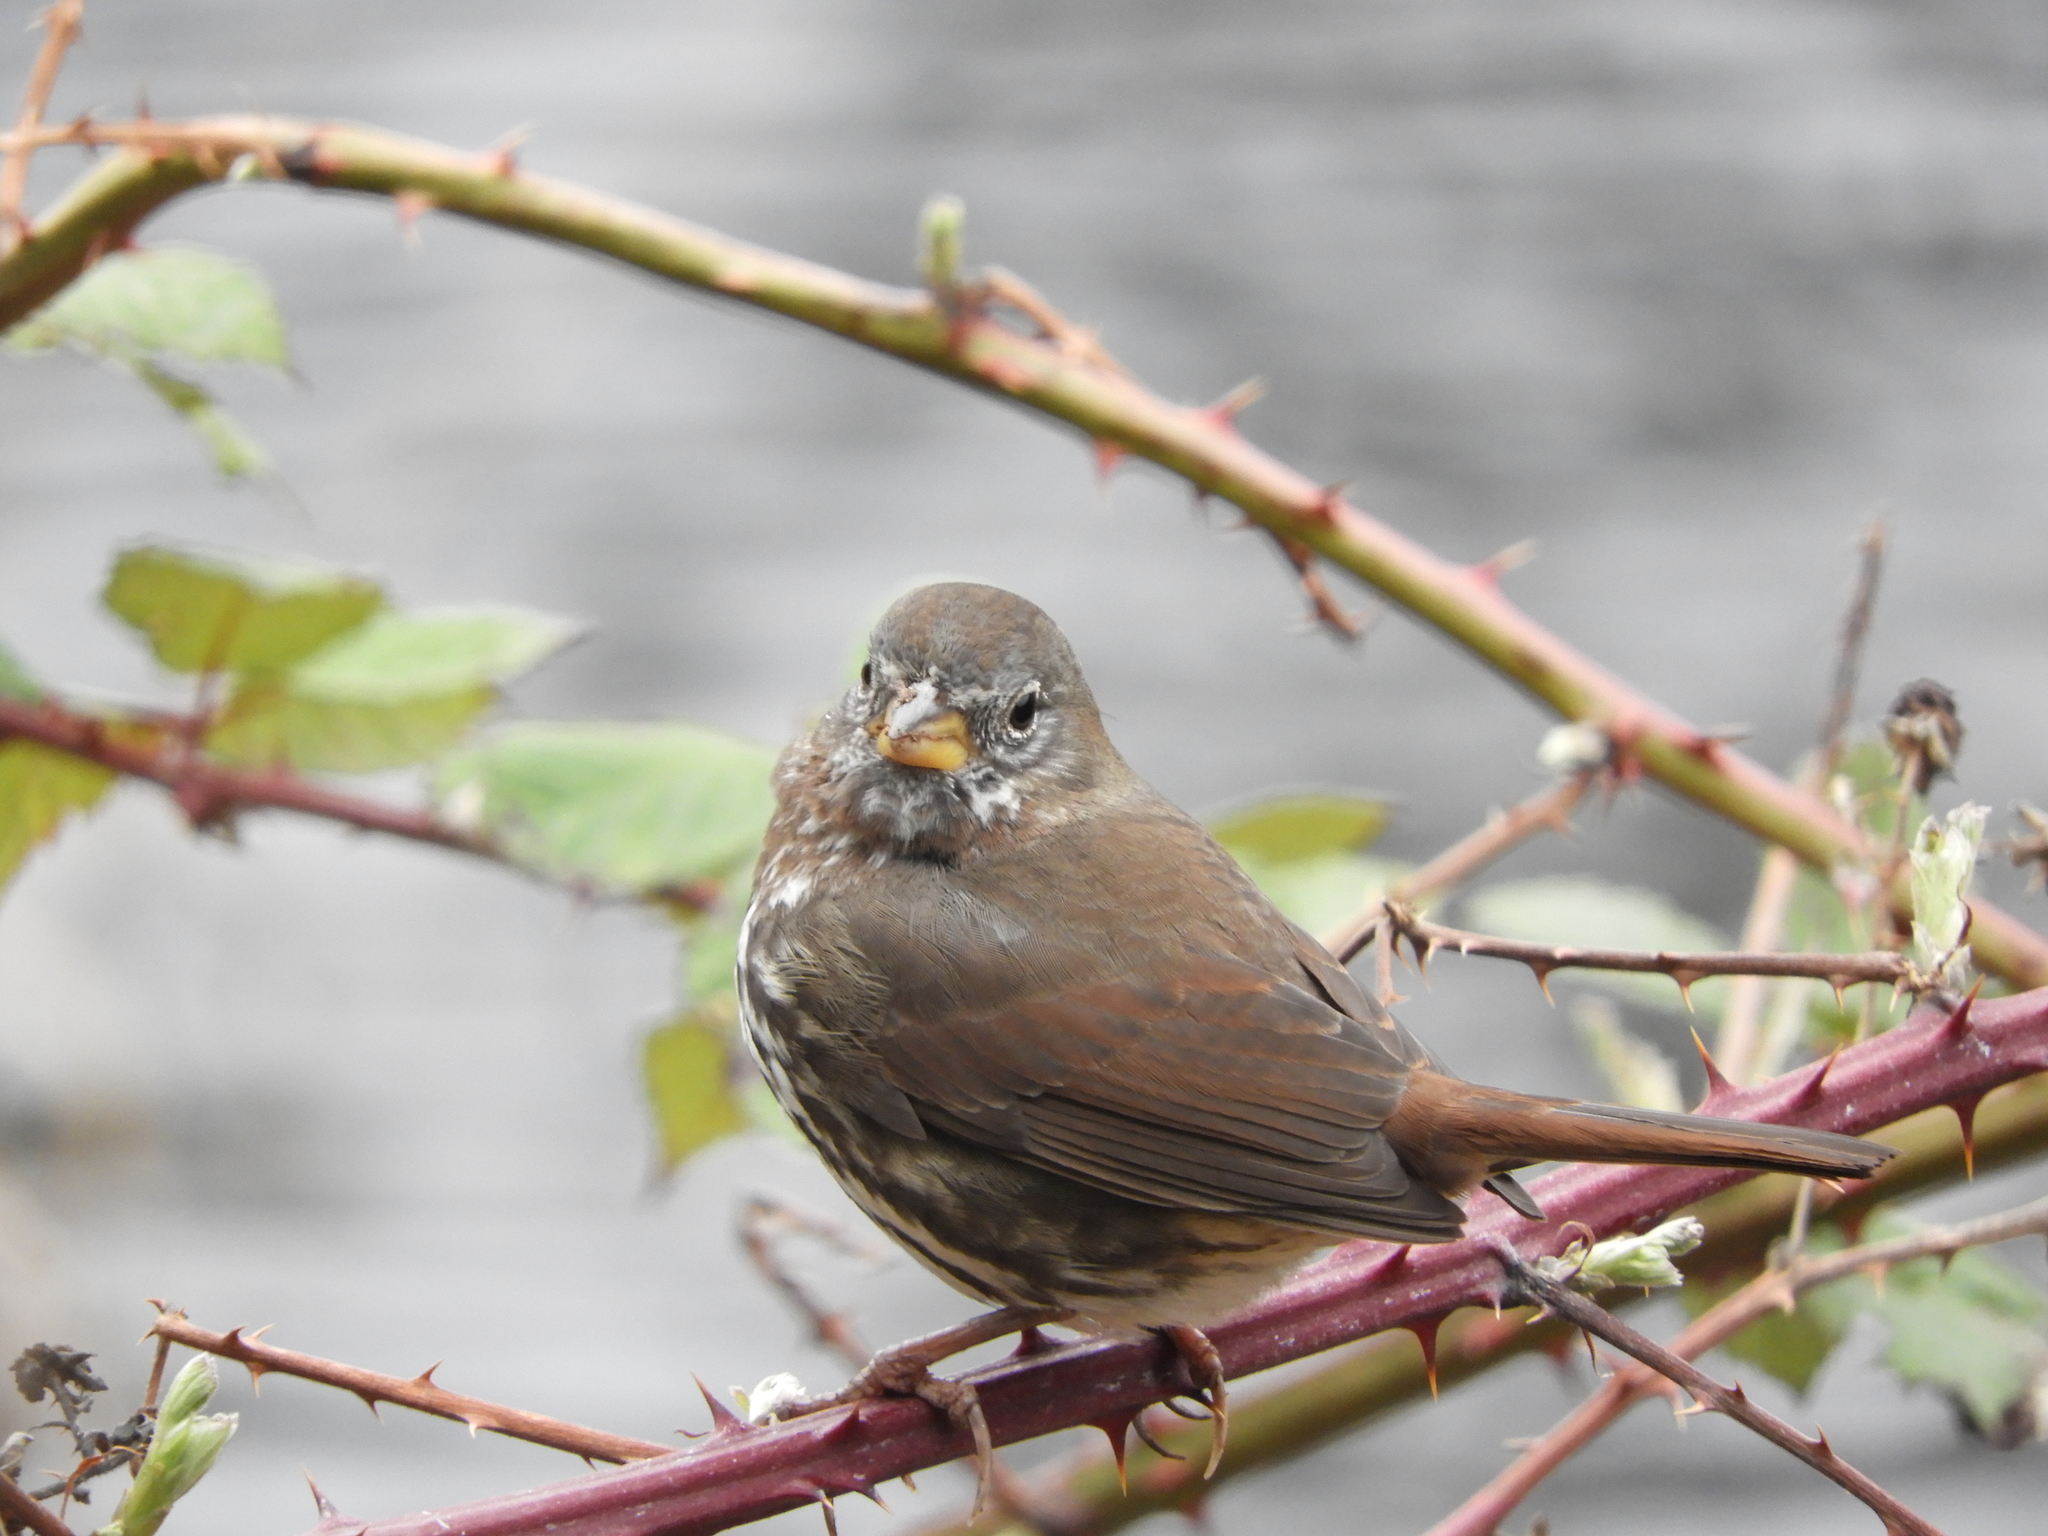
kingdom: Animalia
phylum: Chordata
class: Aves
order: Passeriformes
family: Passerellidae
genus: Passerella
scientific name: Passerella iliaca
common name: Fox sparrow
